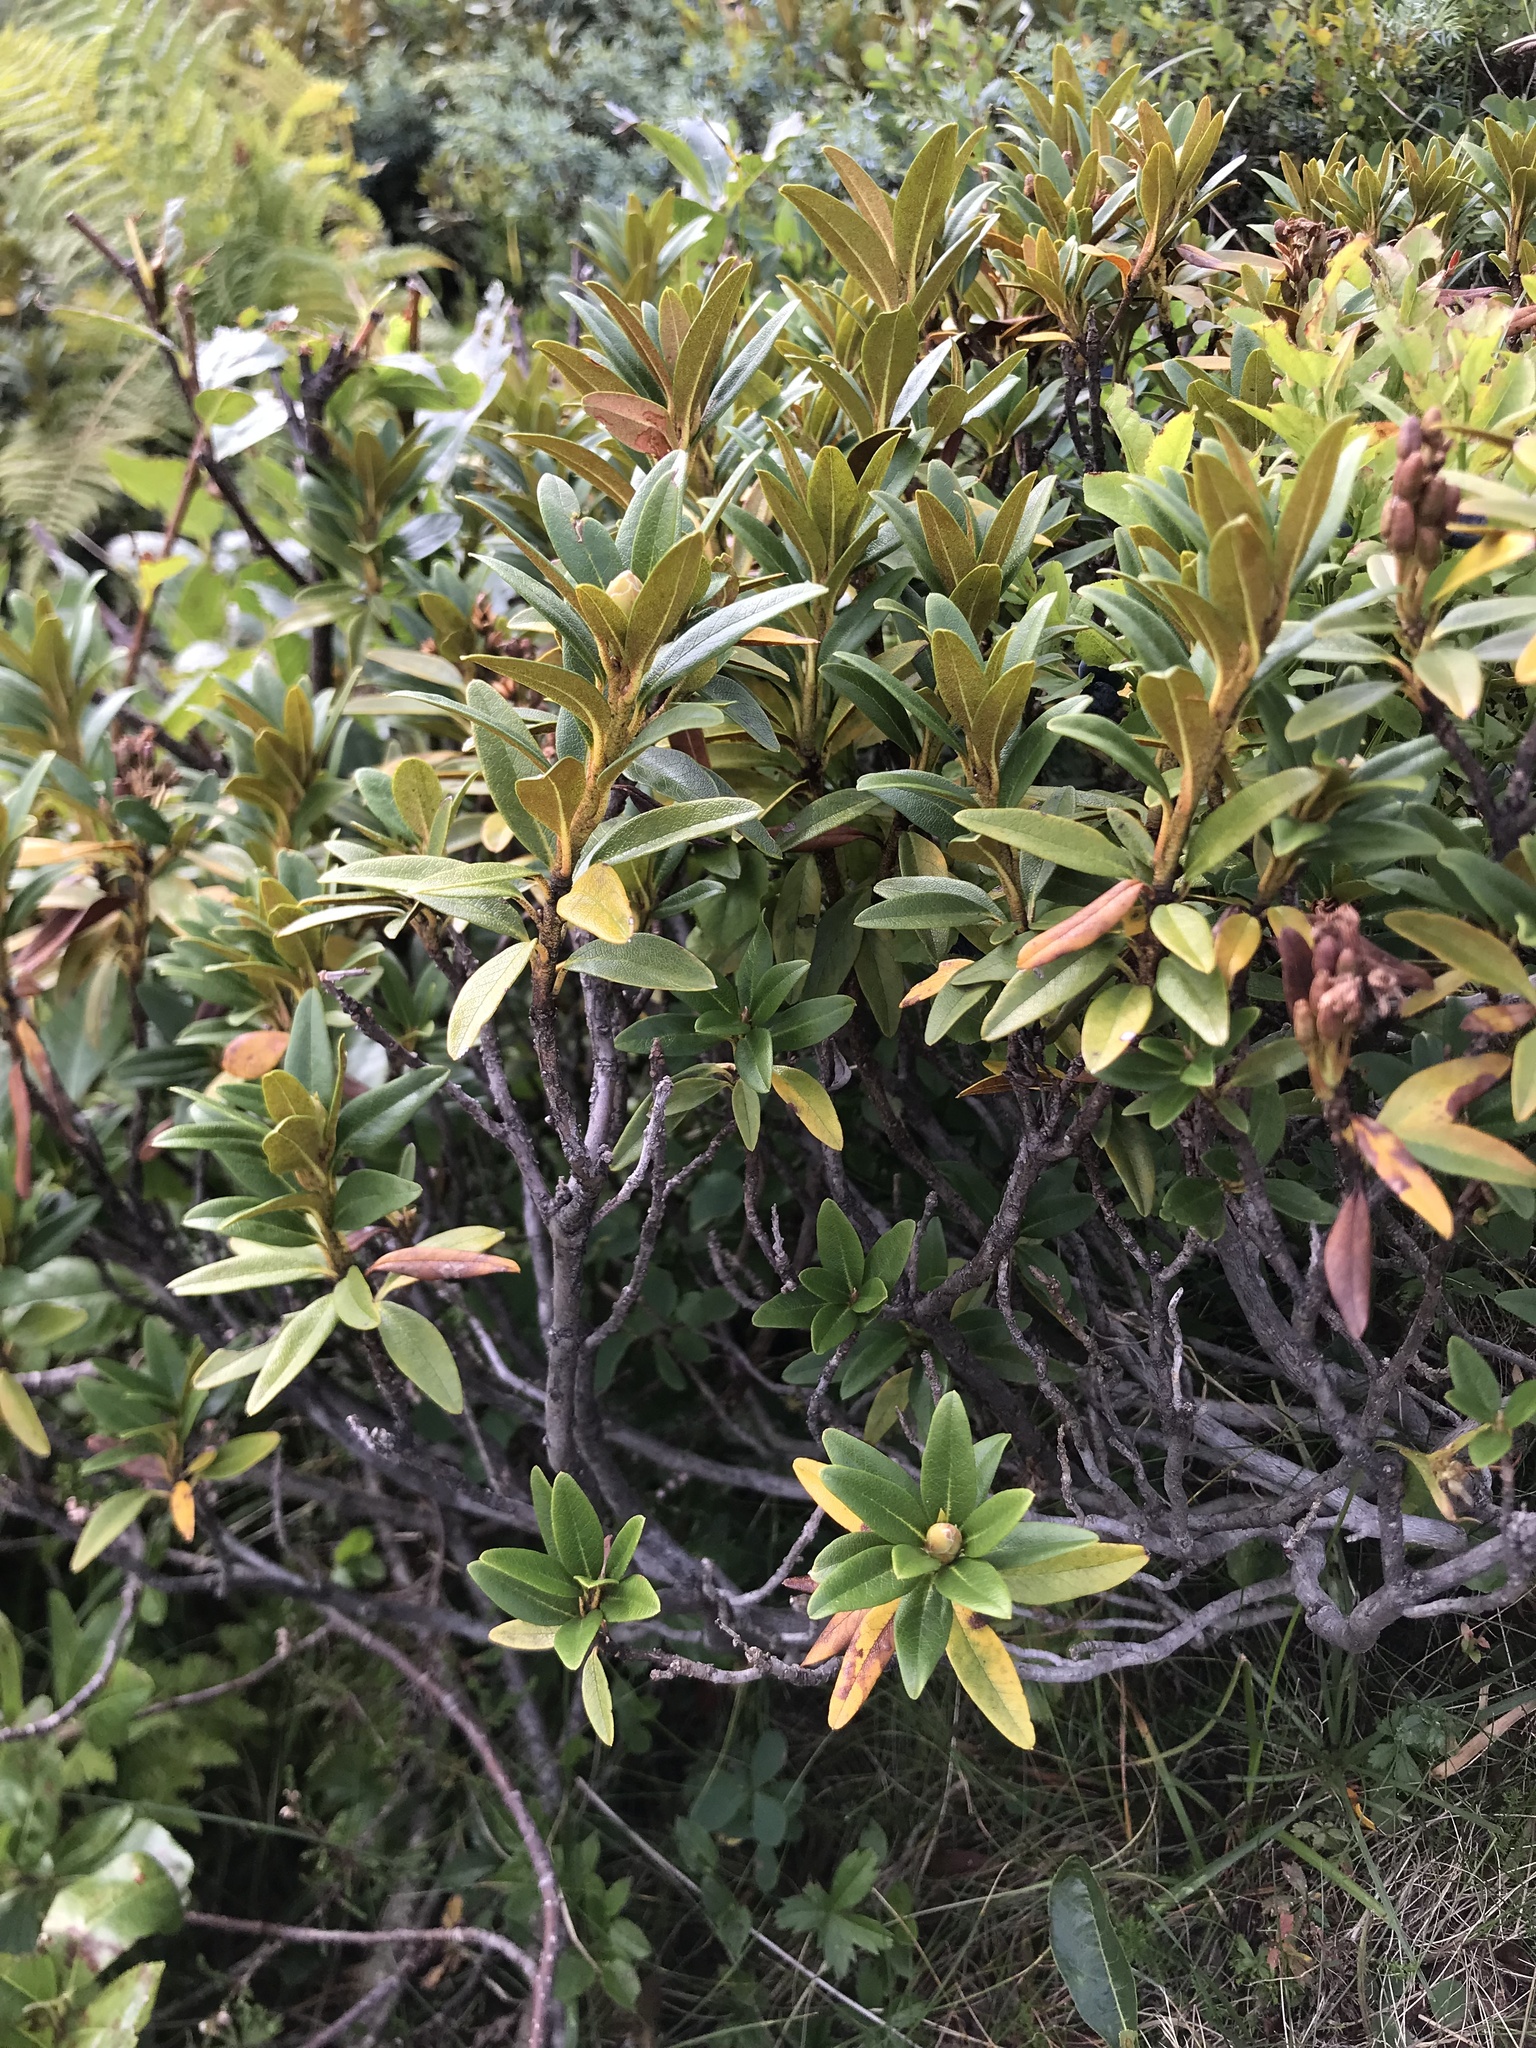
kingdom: Plantae
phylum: Tracheophyta
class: Magnoliopsida
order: Ericales
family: Ericaceae
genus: Rhododendron
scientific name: Rhododendron ferrugineum
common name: Alpenrose
